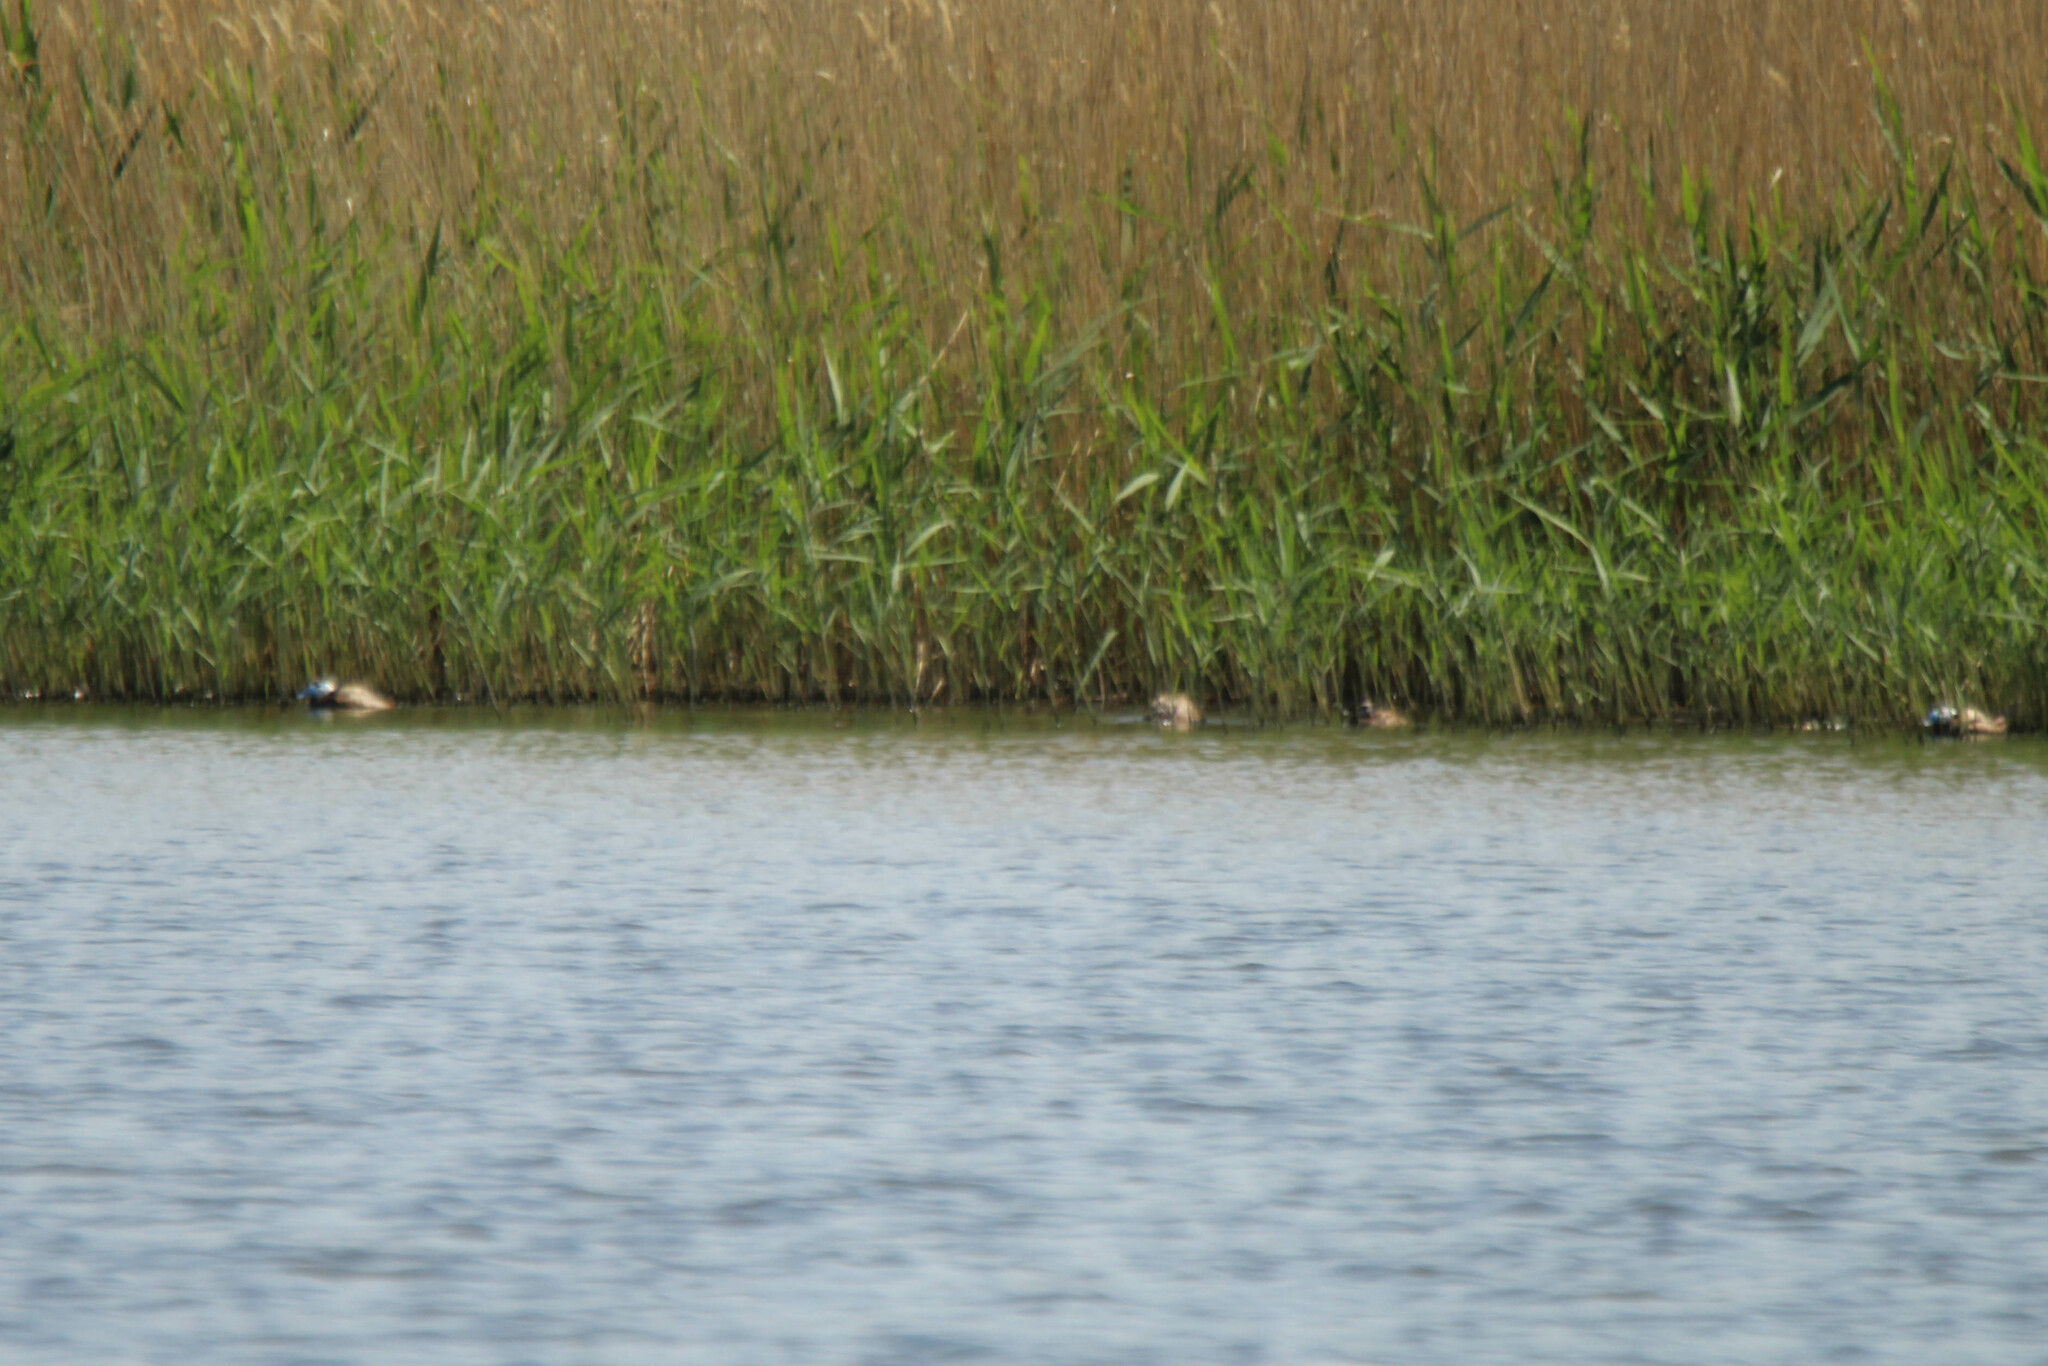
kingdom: Animalia
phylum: Chordata
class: Aves
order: Anseriformes
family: Anatidae
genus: Oxyura
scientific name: Oxyura leucocephala
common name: White-headed duck
